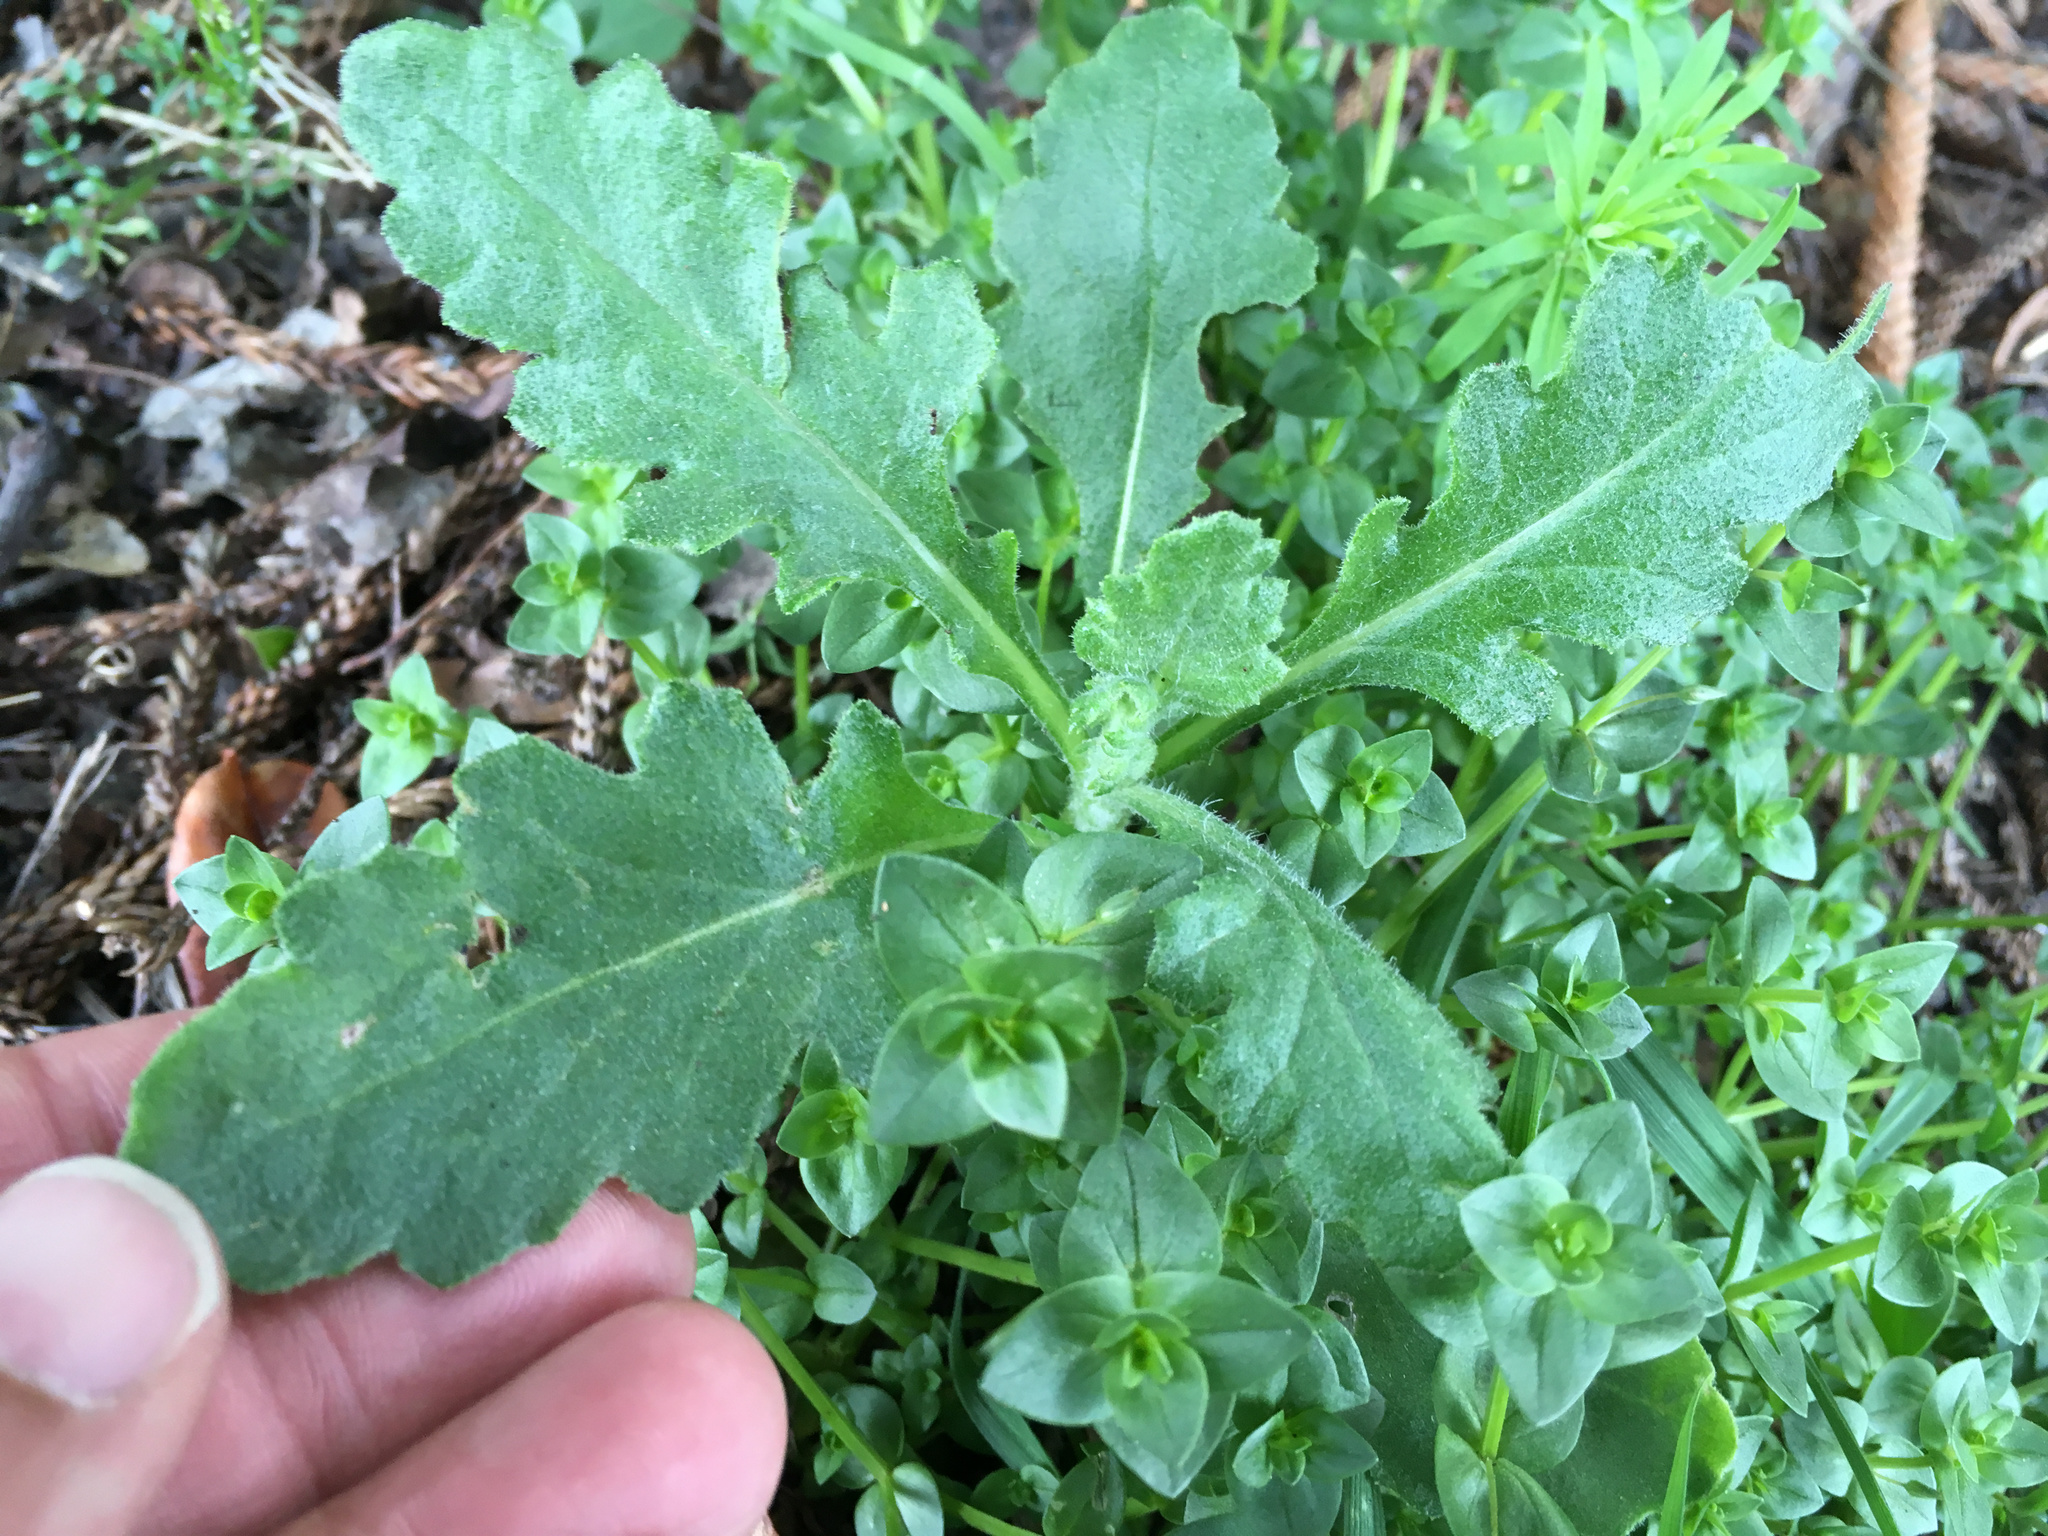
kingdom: Plantae
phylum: Tracheophyta
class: Magnoliopsida
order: Asterales
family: Asteraceae
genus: Senecio
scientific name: Senecio glomeratus
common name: Cutleaf burnweed
